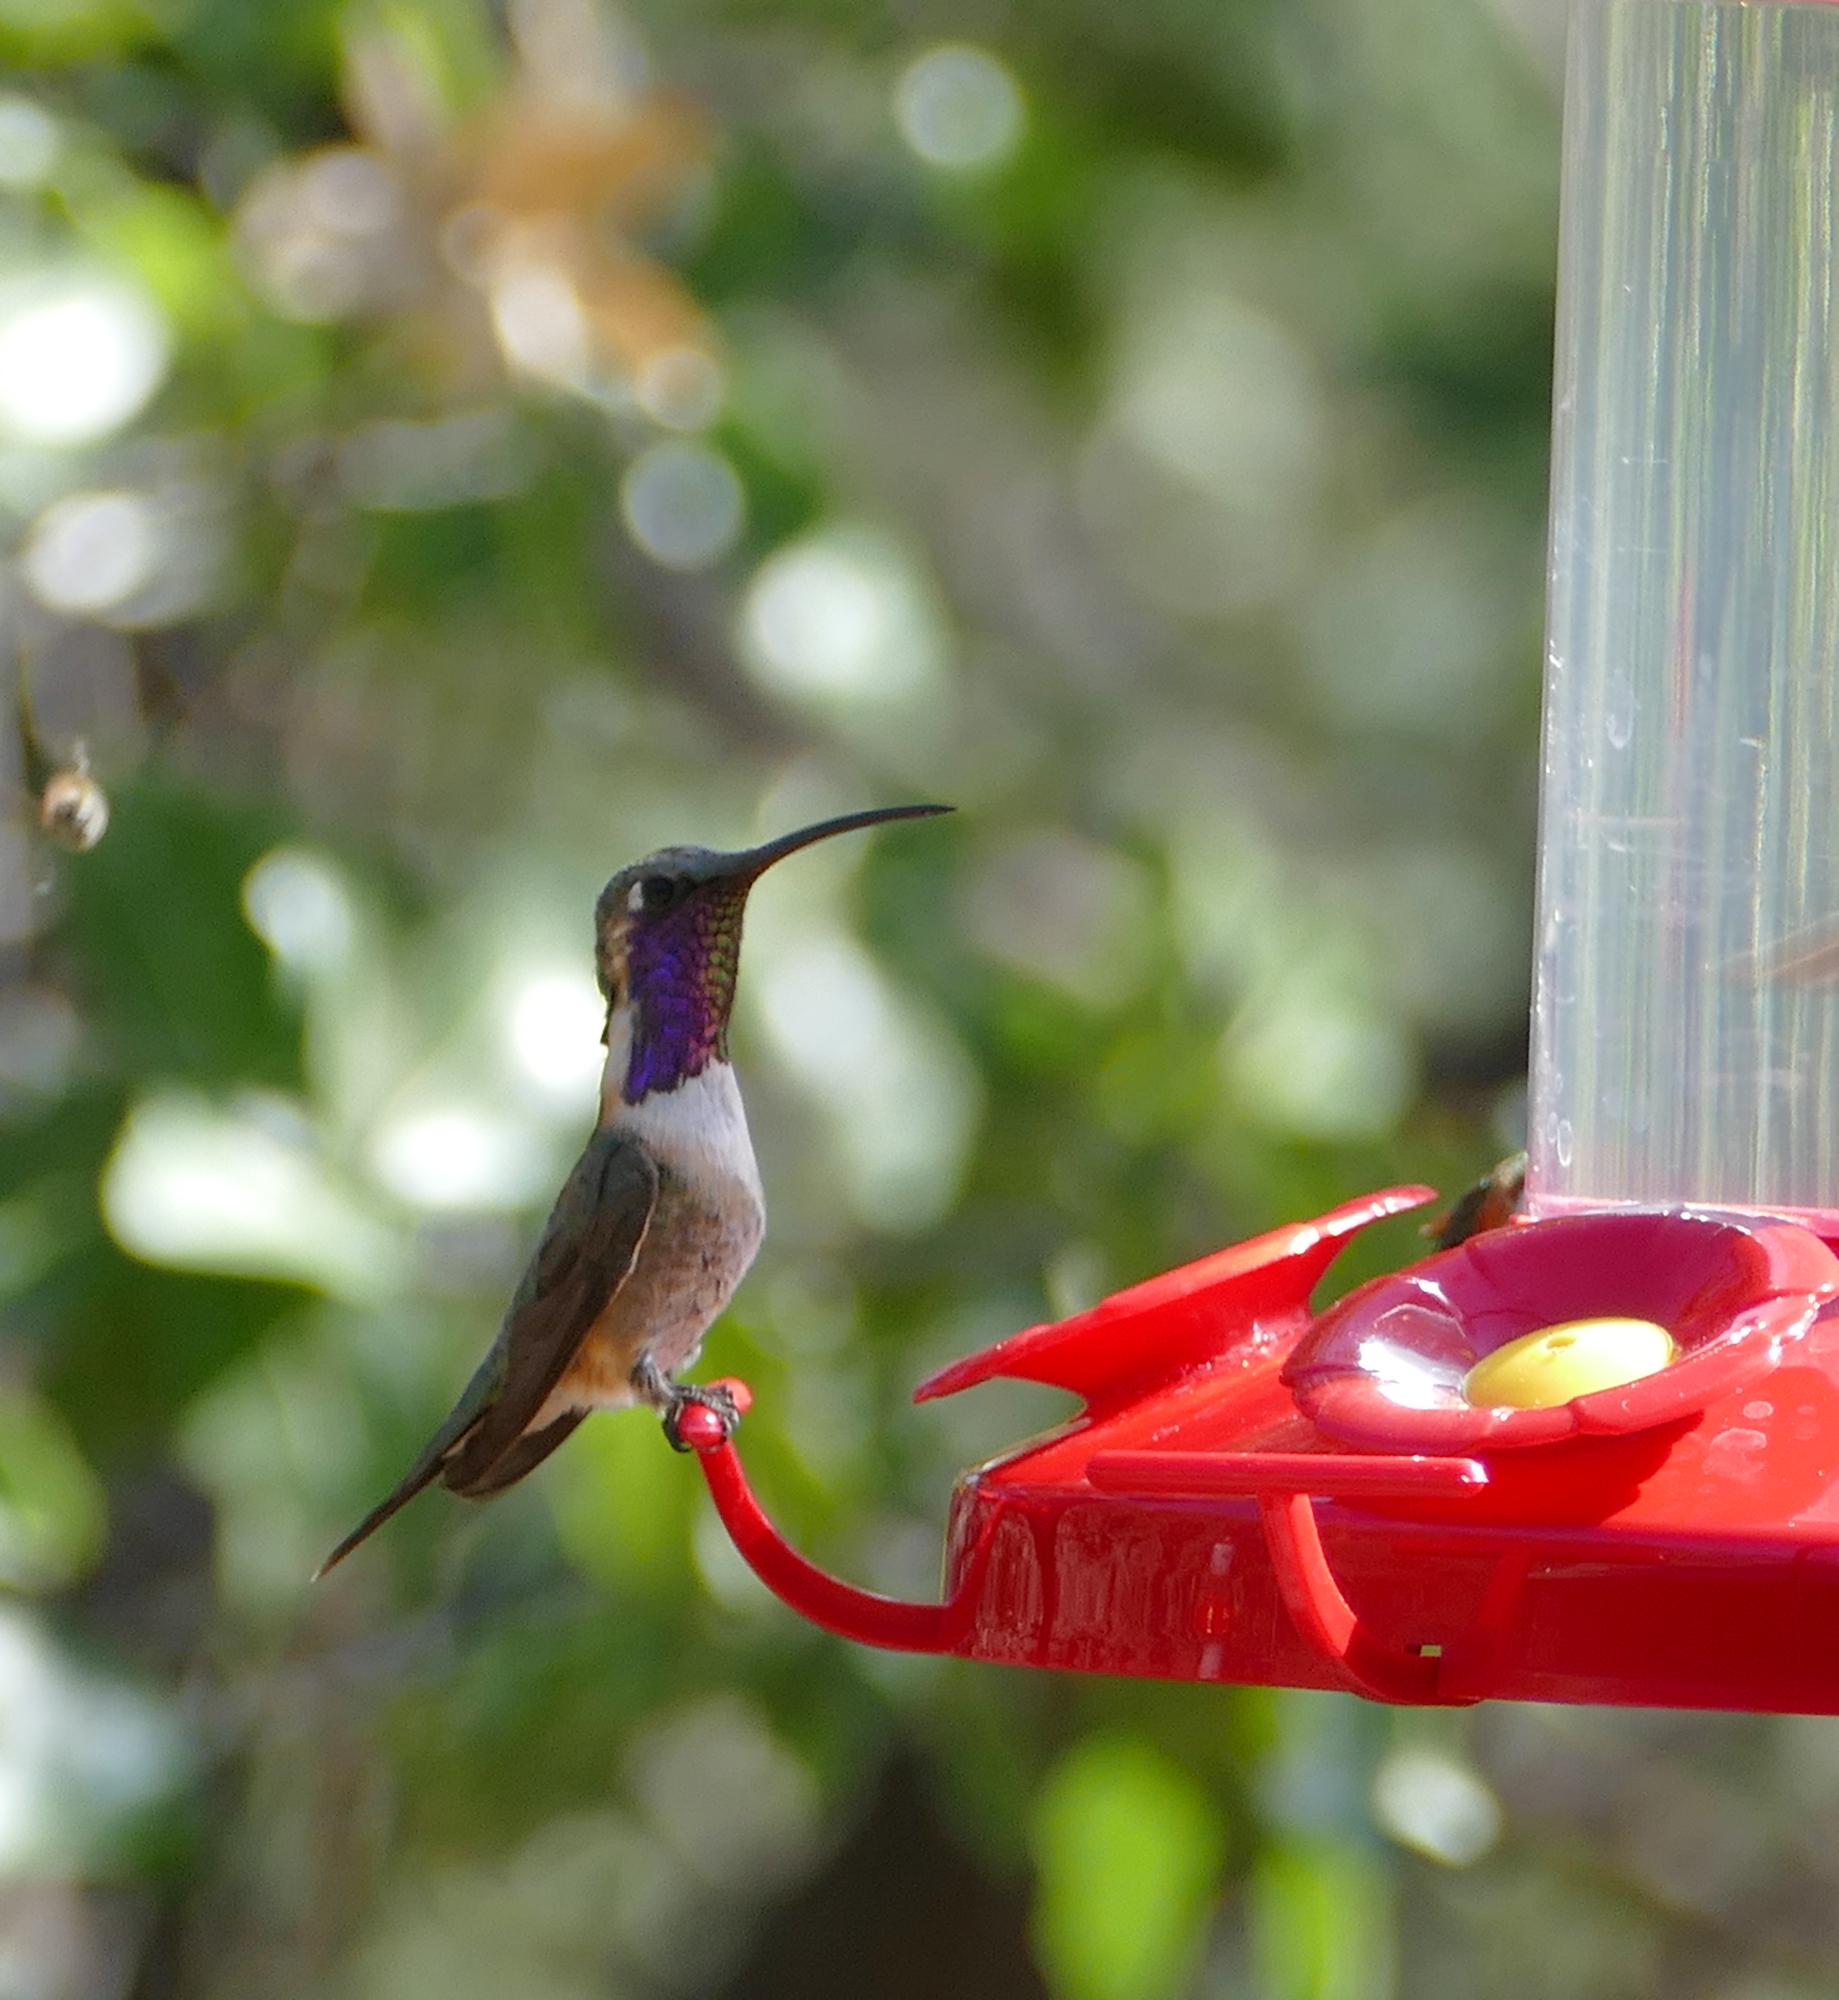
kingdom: Animalia
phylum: Chordata
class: Aves
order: Apodiformes
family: Trochilidae
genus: Calothorax
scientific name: Calothorax lucifer
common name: Lucifer sheartail
